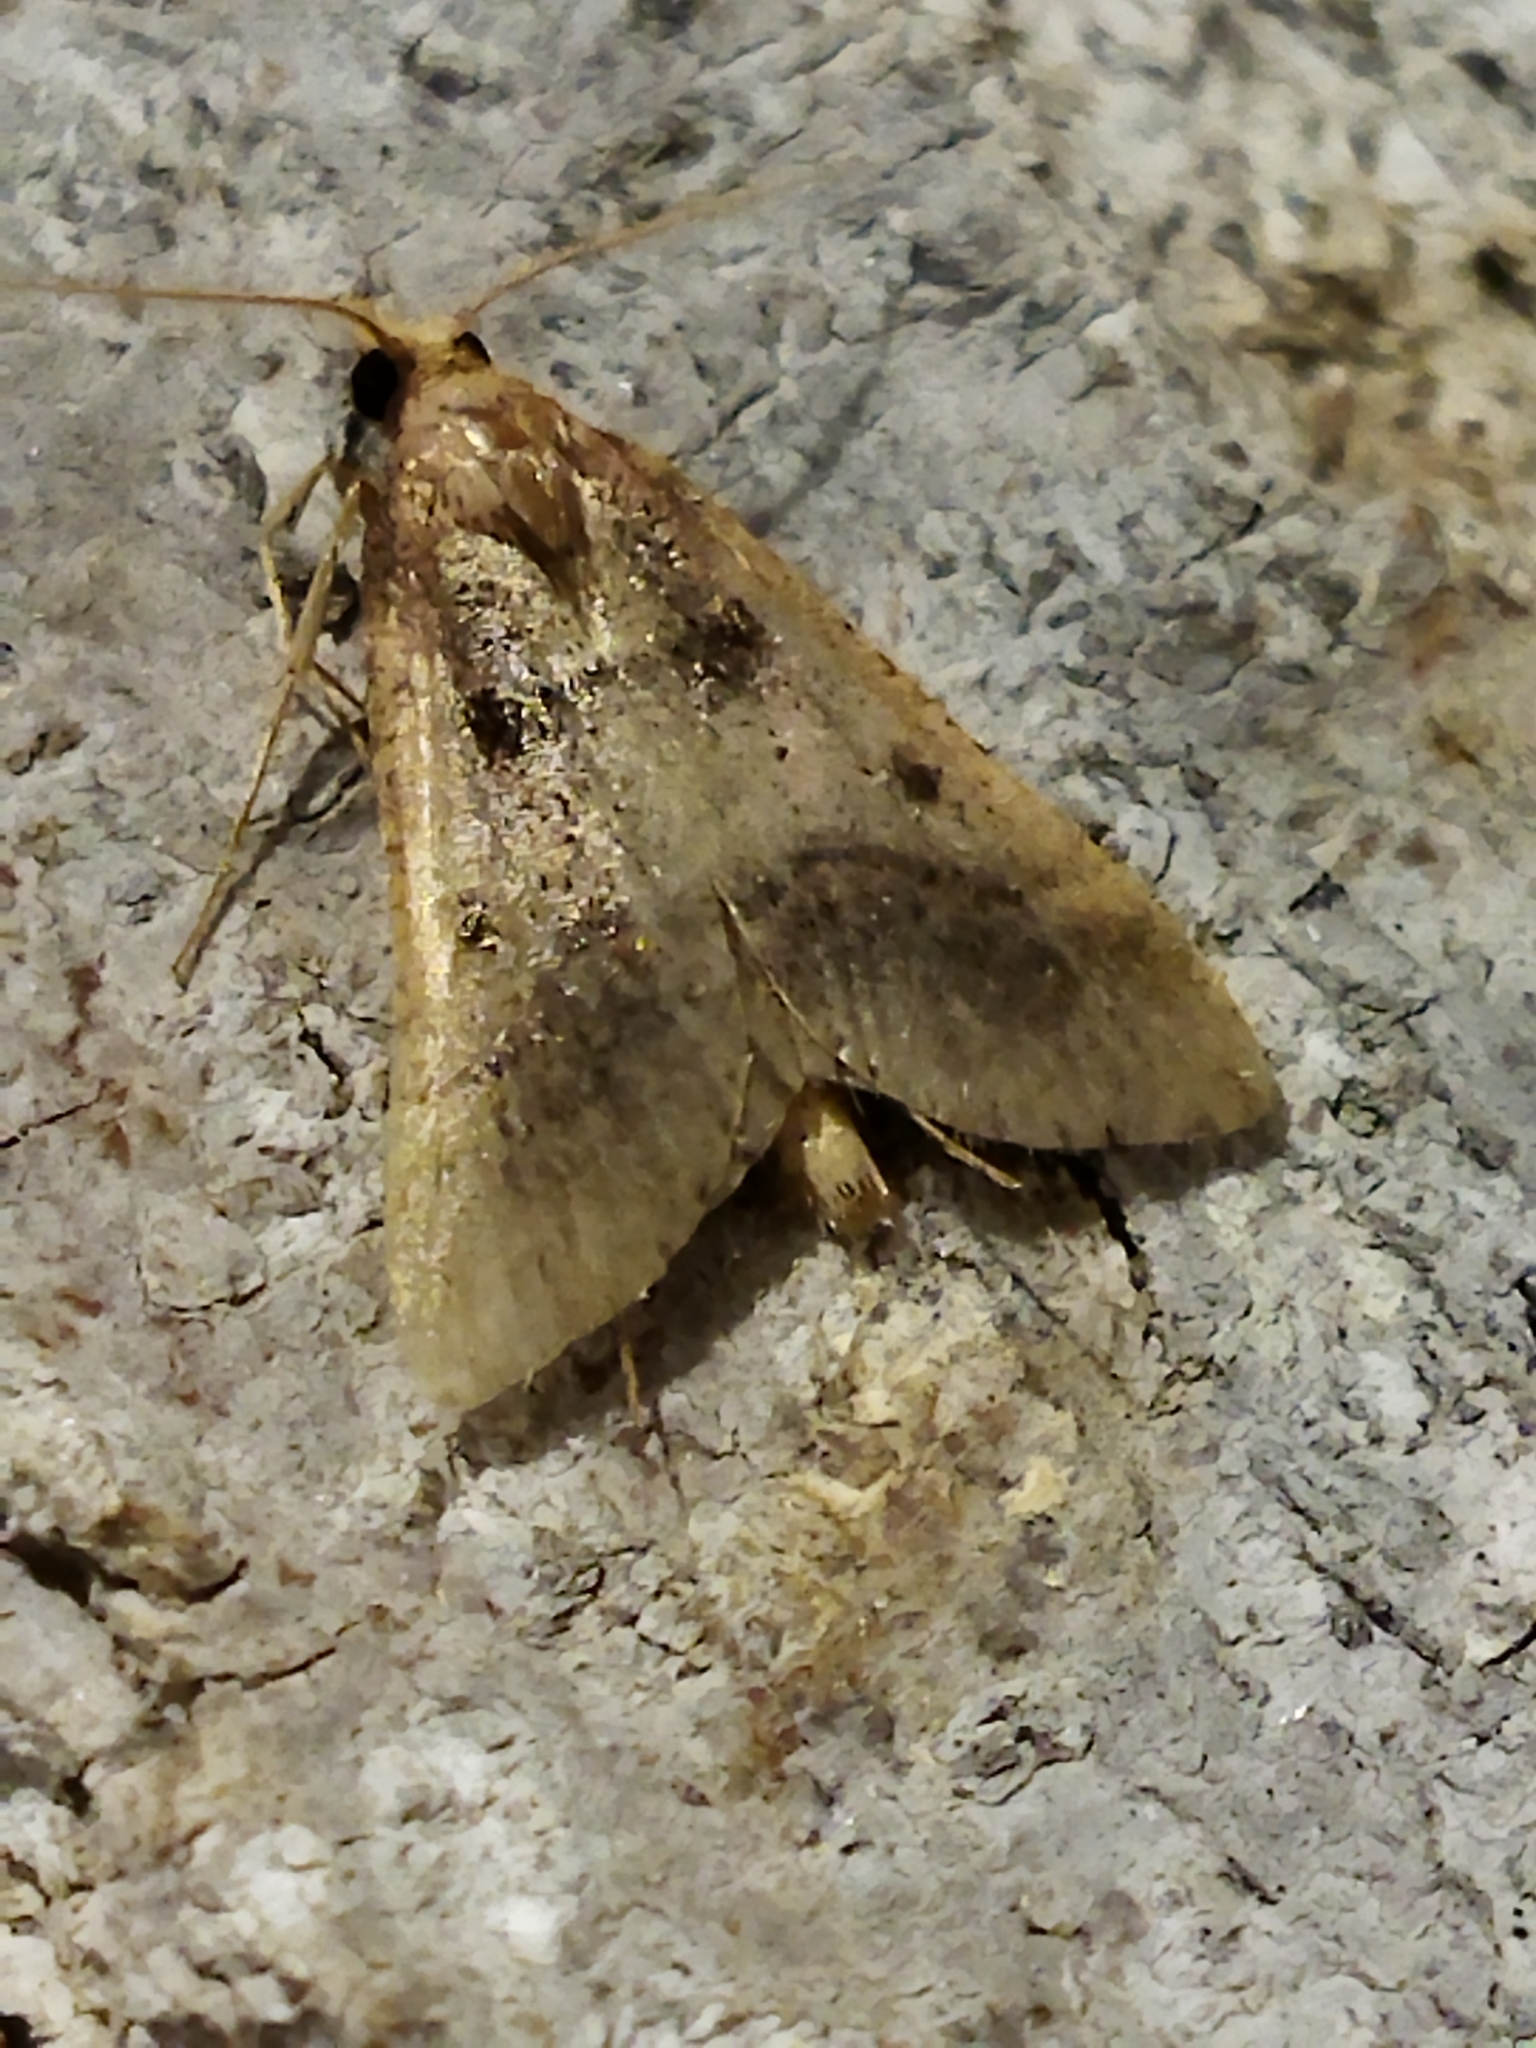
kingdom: Animalia
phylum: Arthropoda
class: Insecta
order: Lepidoptera
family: Pyralidae
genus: Stemmatophora
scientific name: Stemmatophora brunnealis
